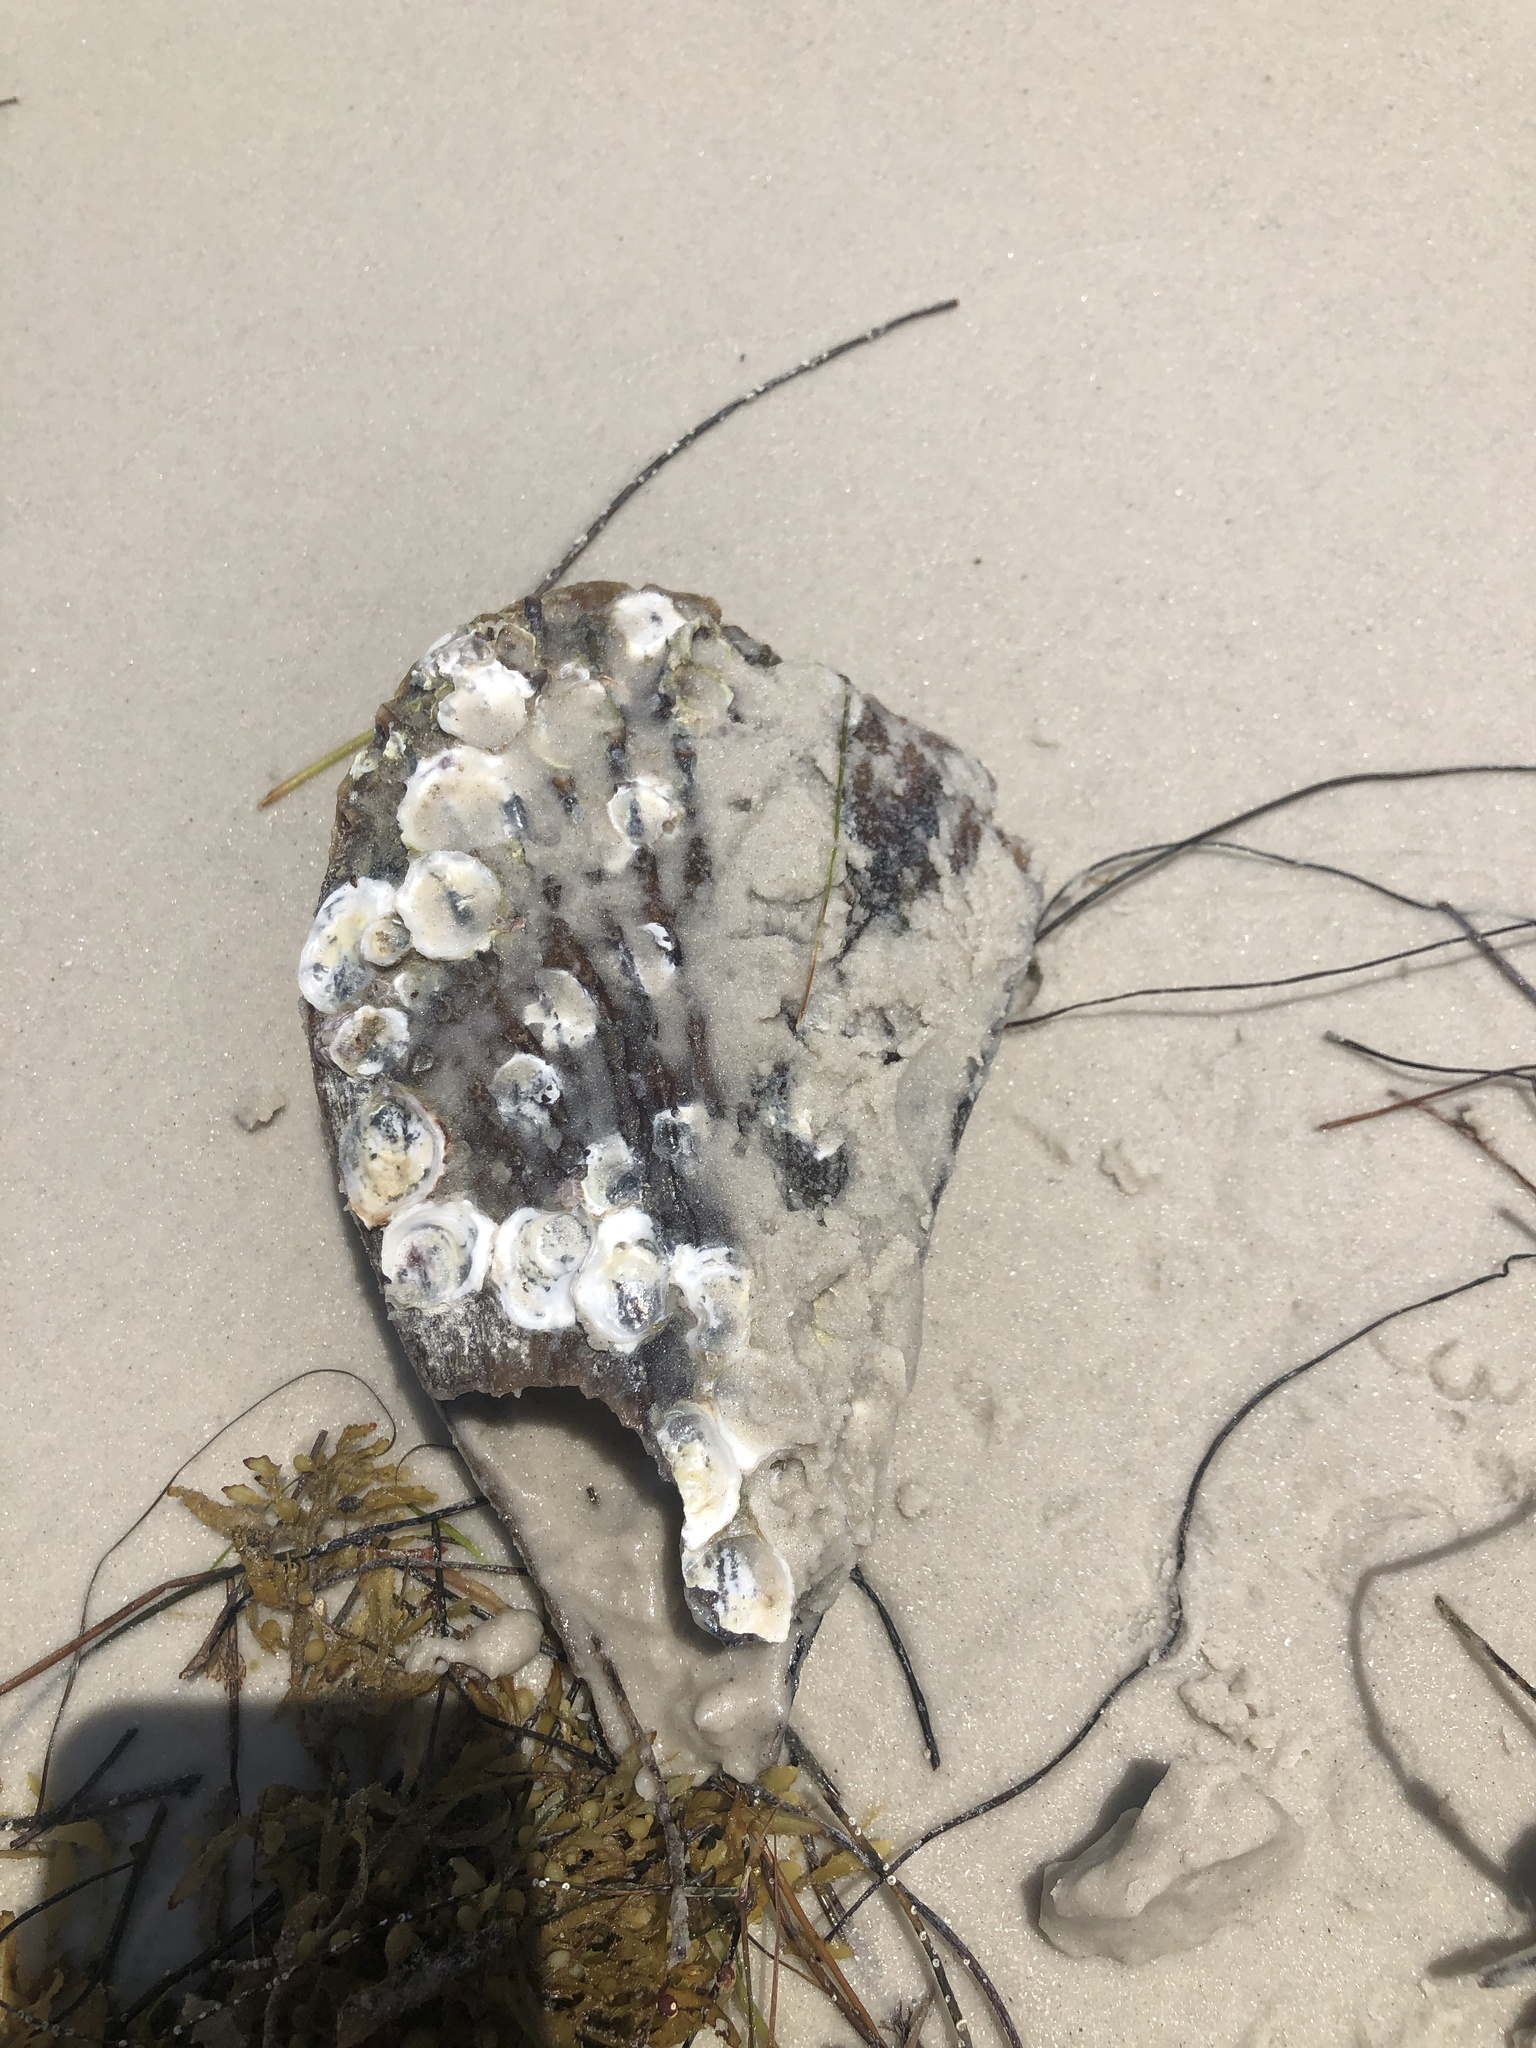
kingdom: Animalia
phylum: Mollusca
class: Bivalvia
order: Ostreida
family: Pinnidae
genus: Atrina
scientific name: Atrina rigida
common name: Stiff penshell
